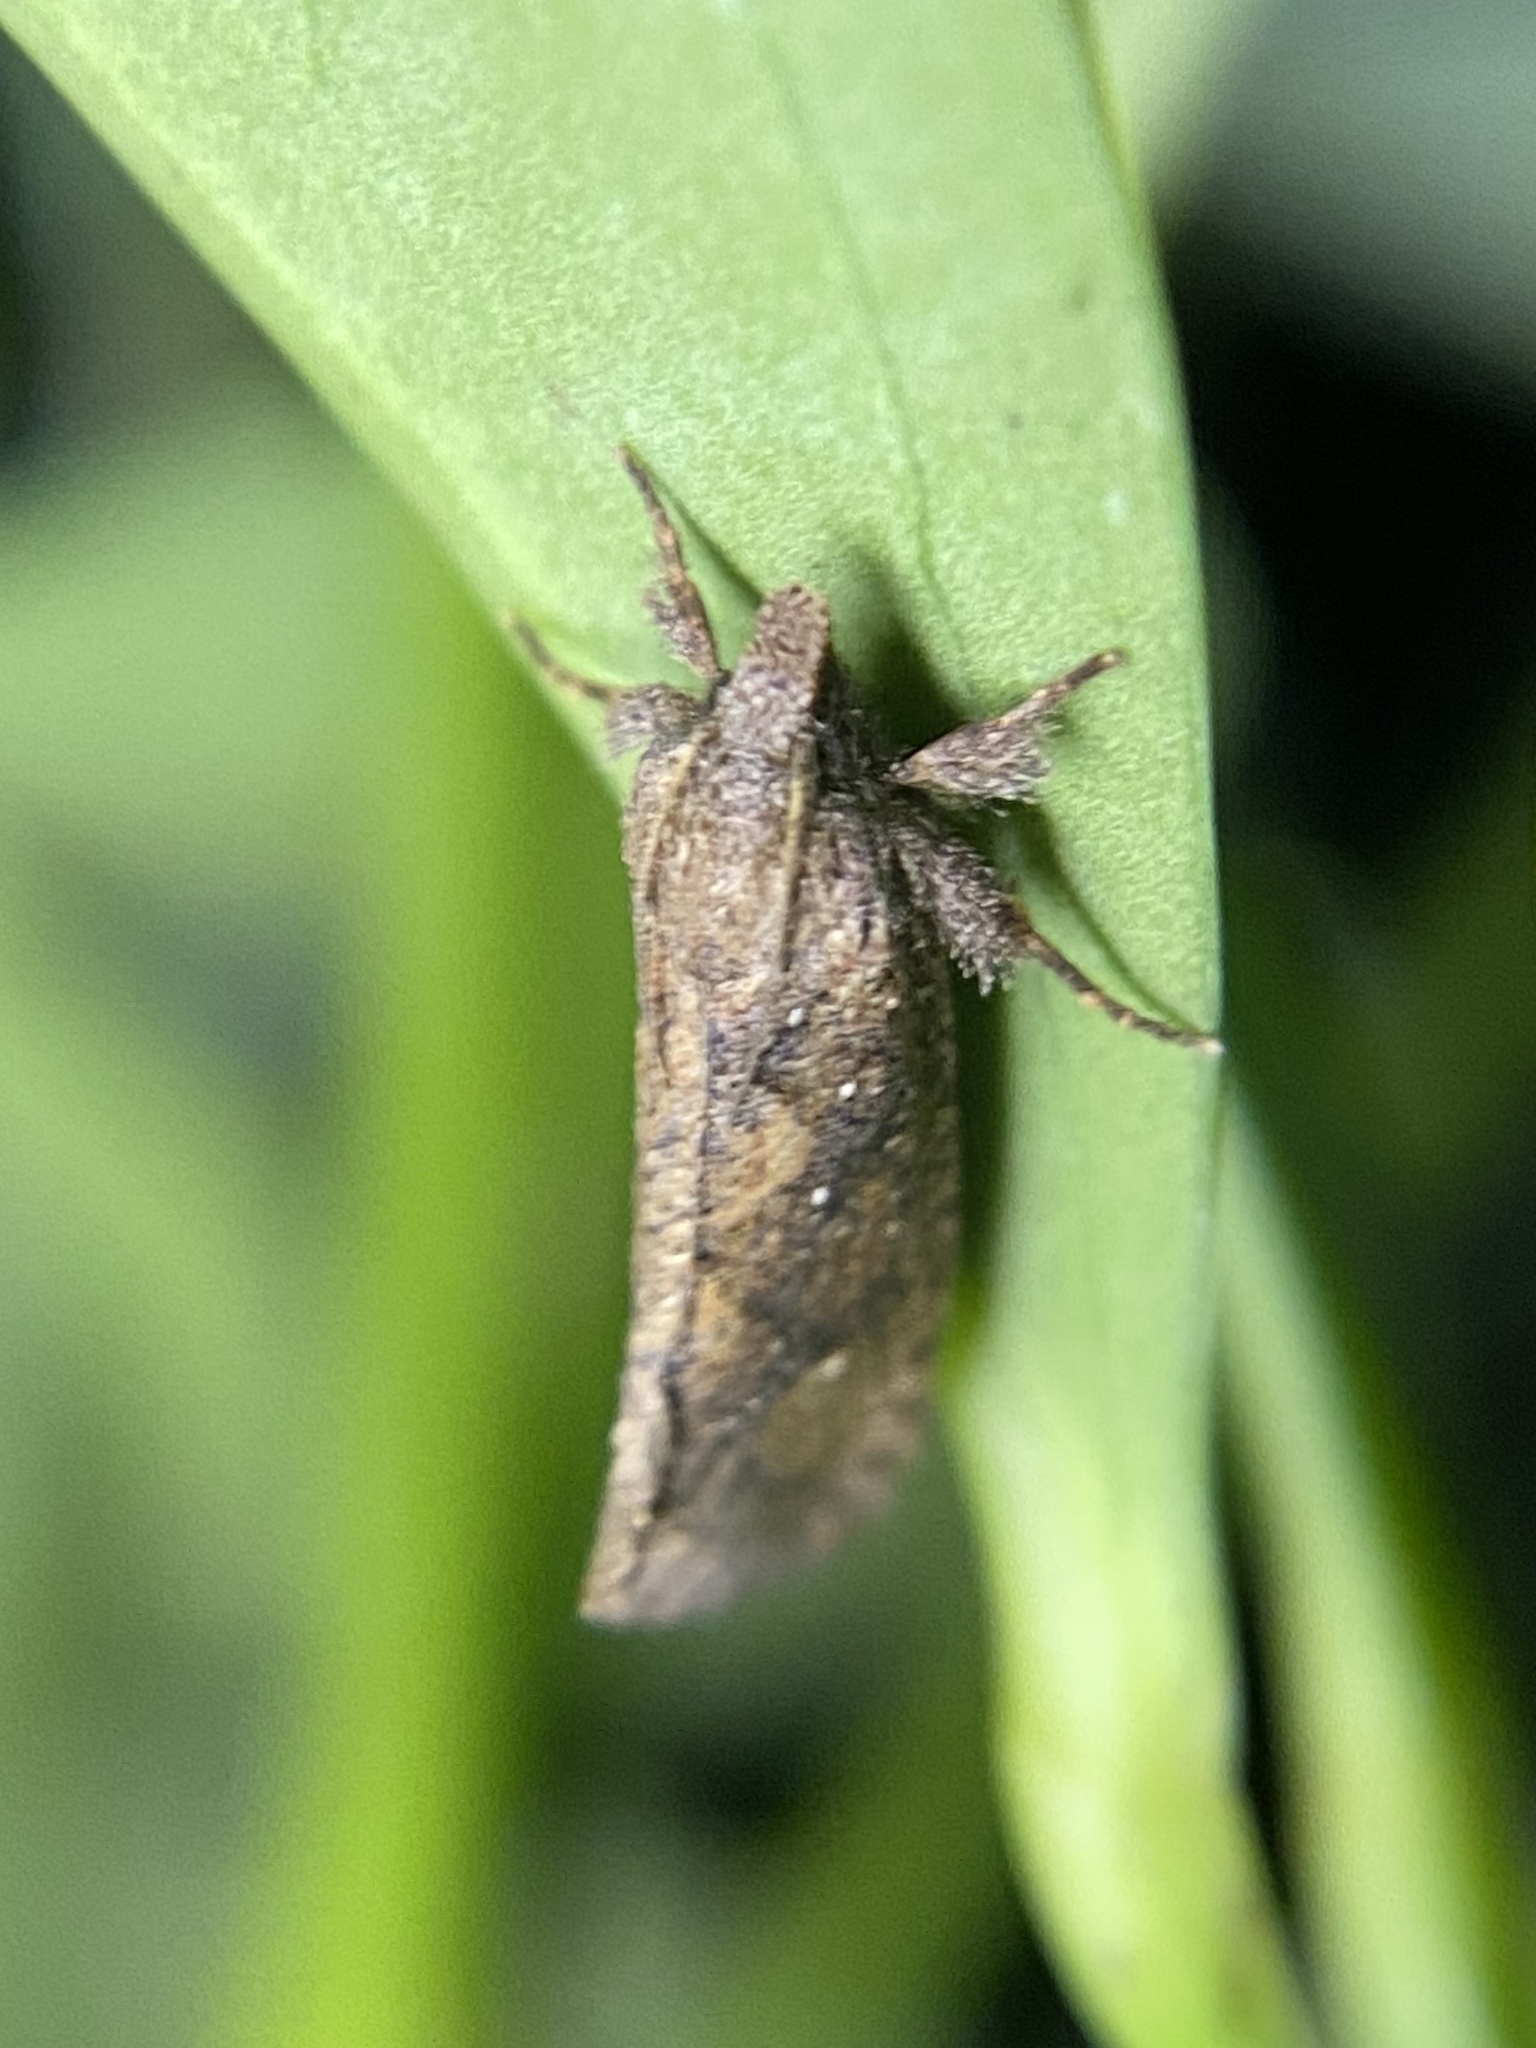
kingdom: Animalia
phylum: Arthropoda
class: Insecta
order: Lepidoptera
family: Tineidae
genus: Acrolophus
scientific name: Acrolophus walsinghami
